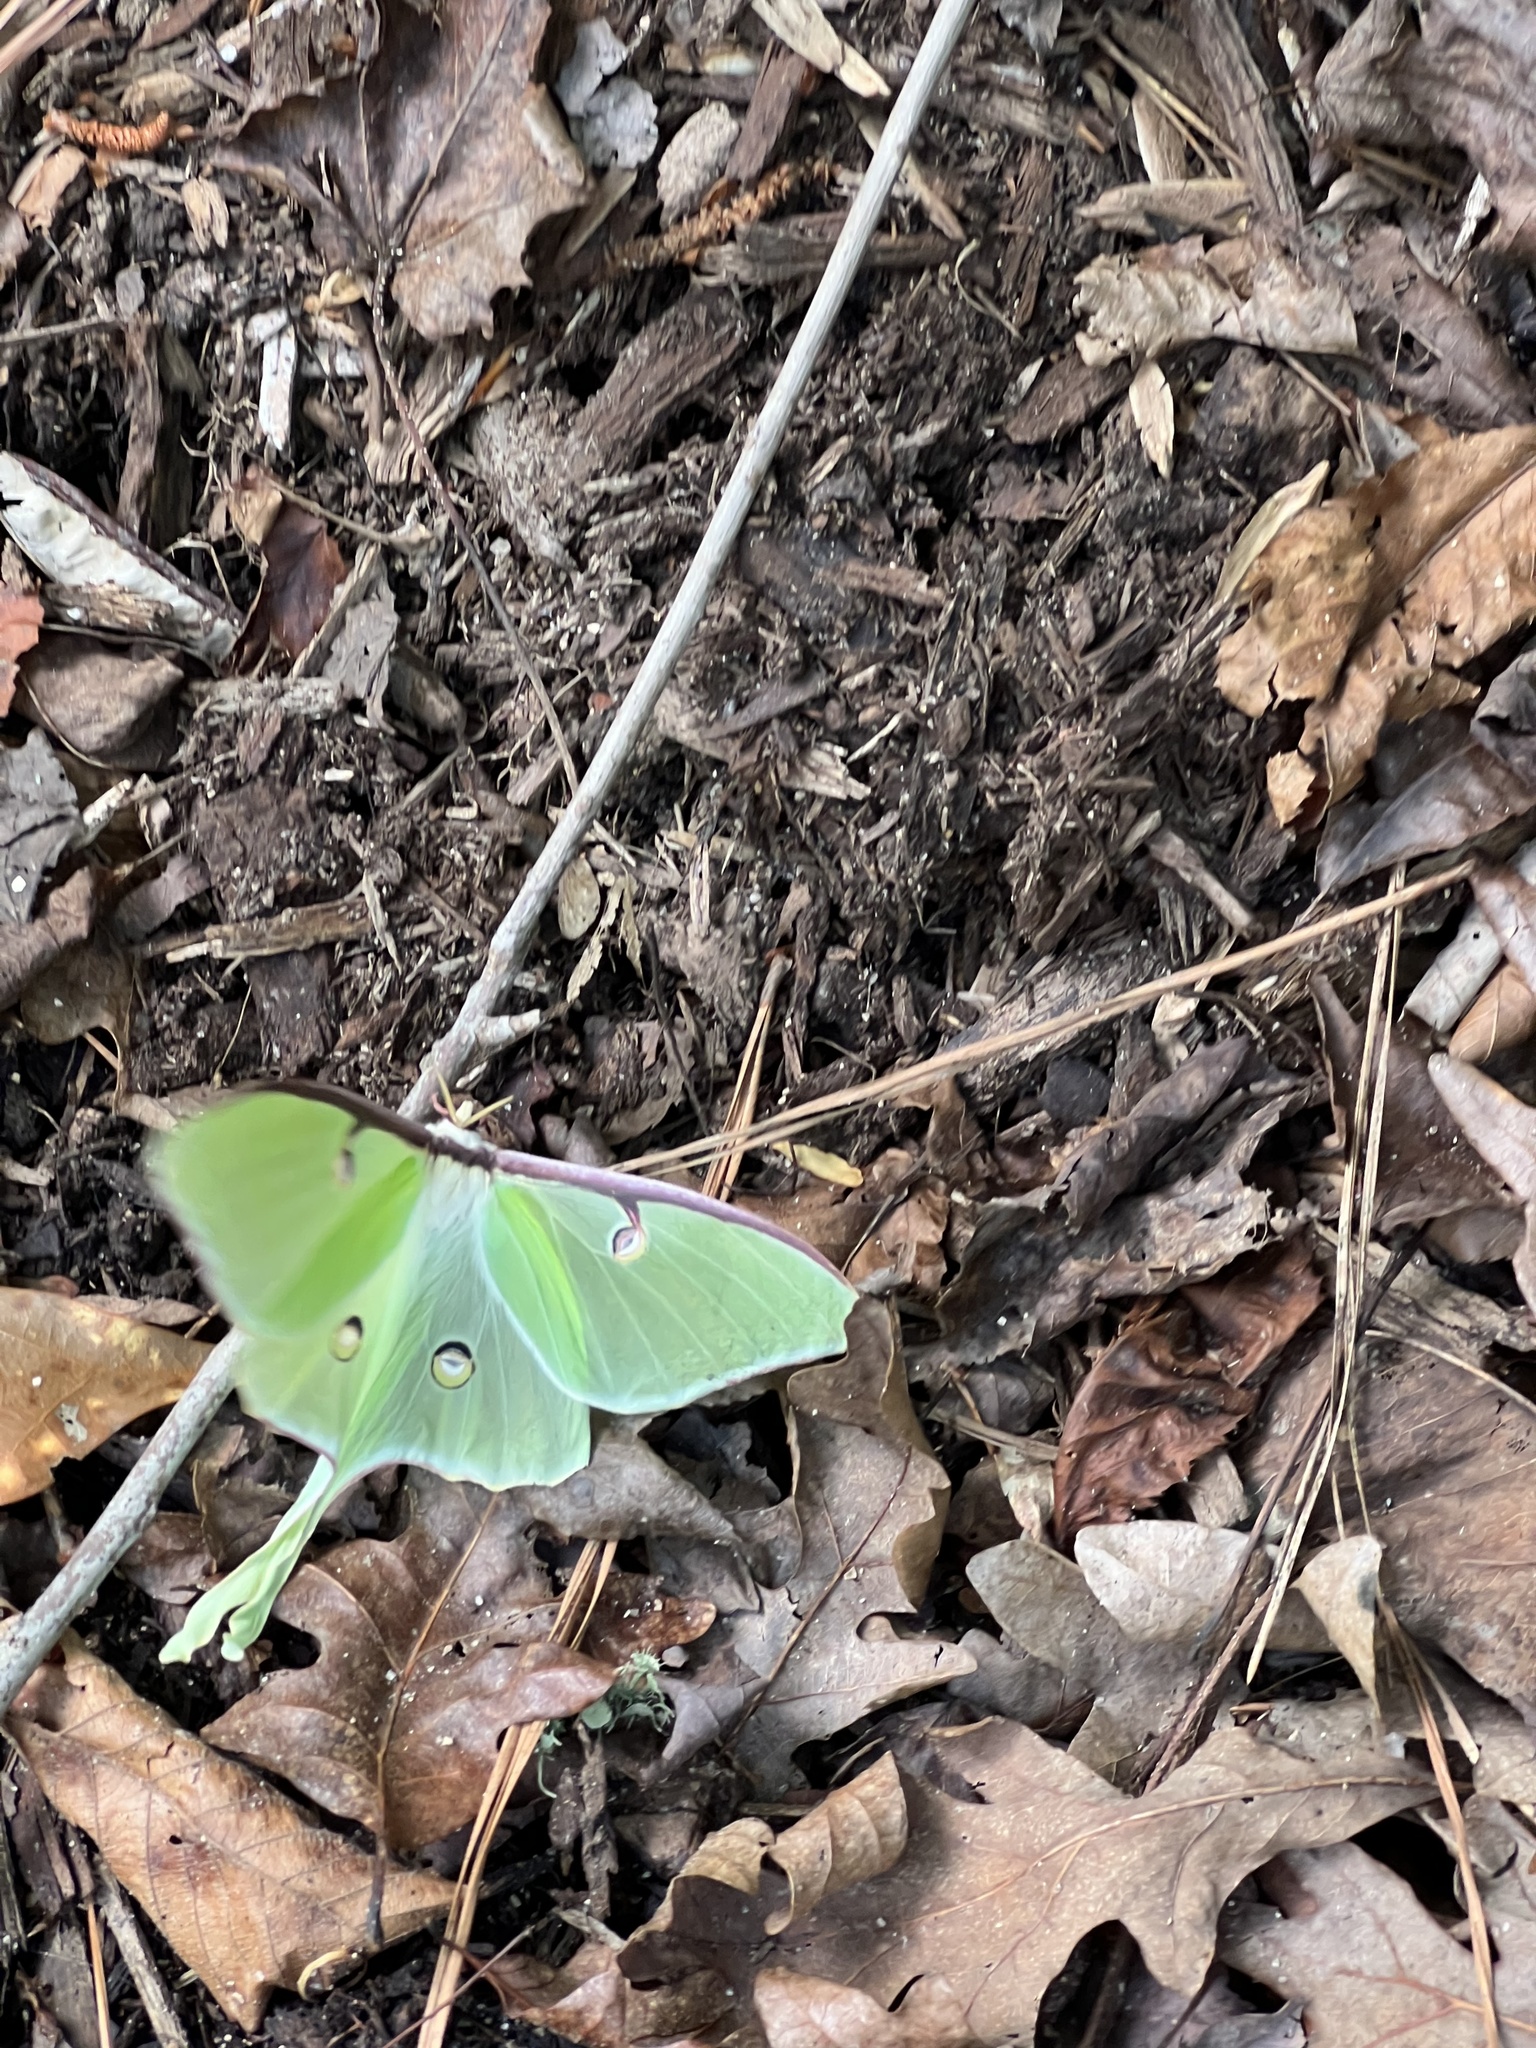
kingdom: Animalia
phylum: Arthropoda
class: Insecta
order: Lepidoptera
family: Saturniidae
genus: Actias
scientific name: Actias luna
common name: Luna moth
